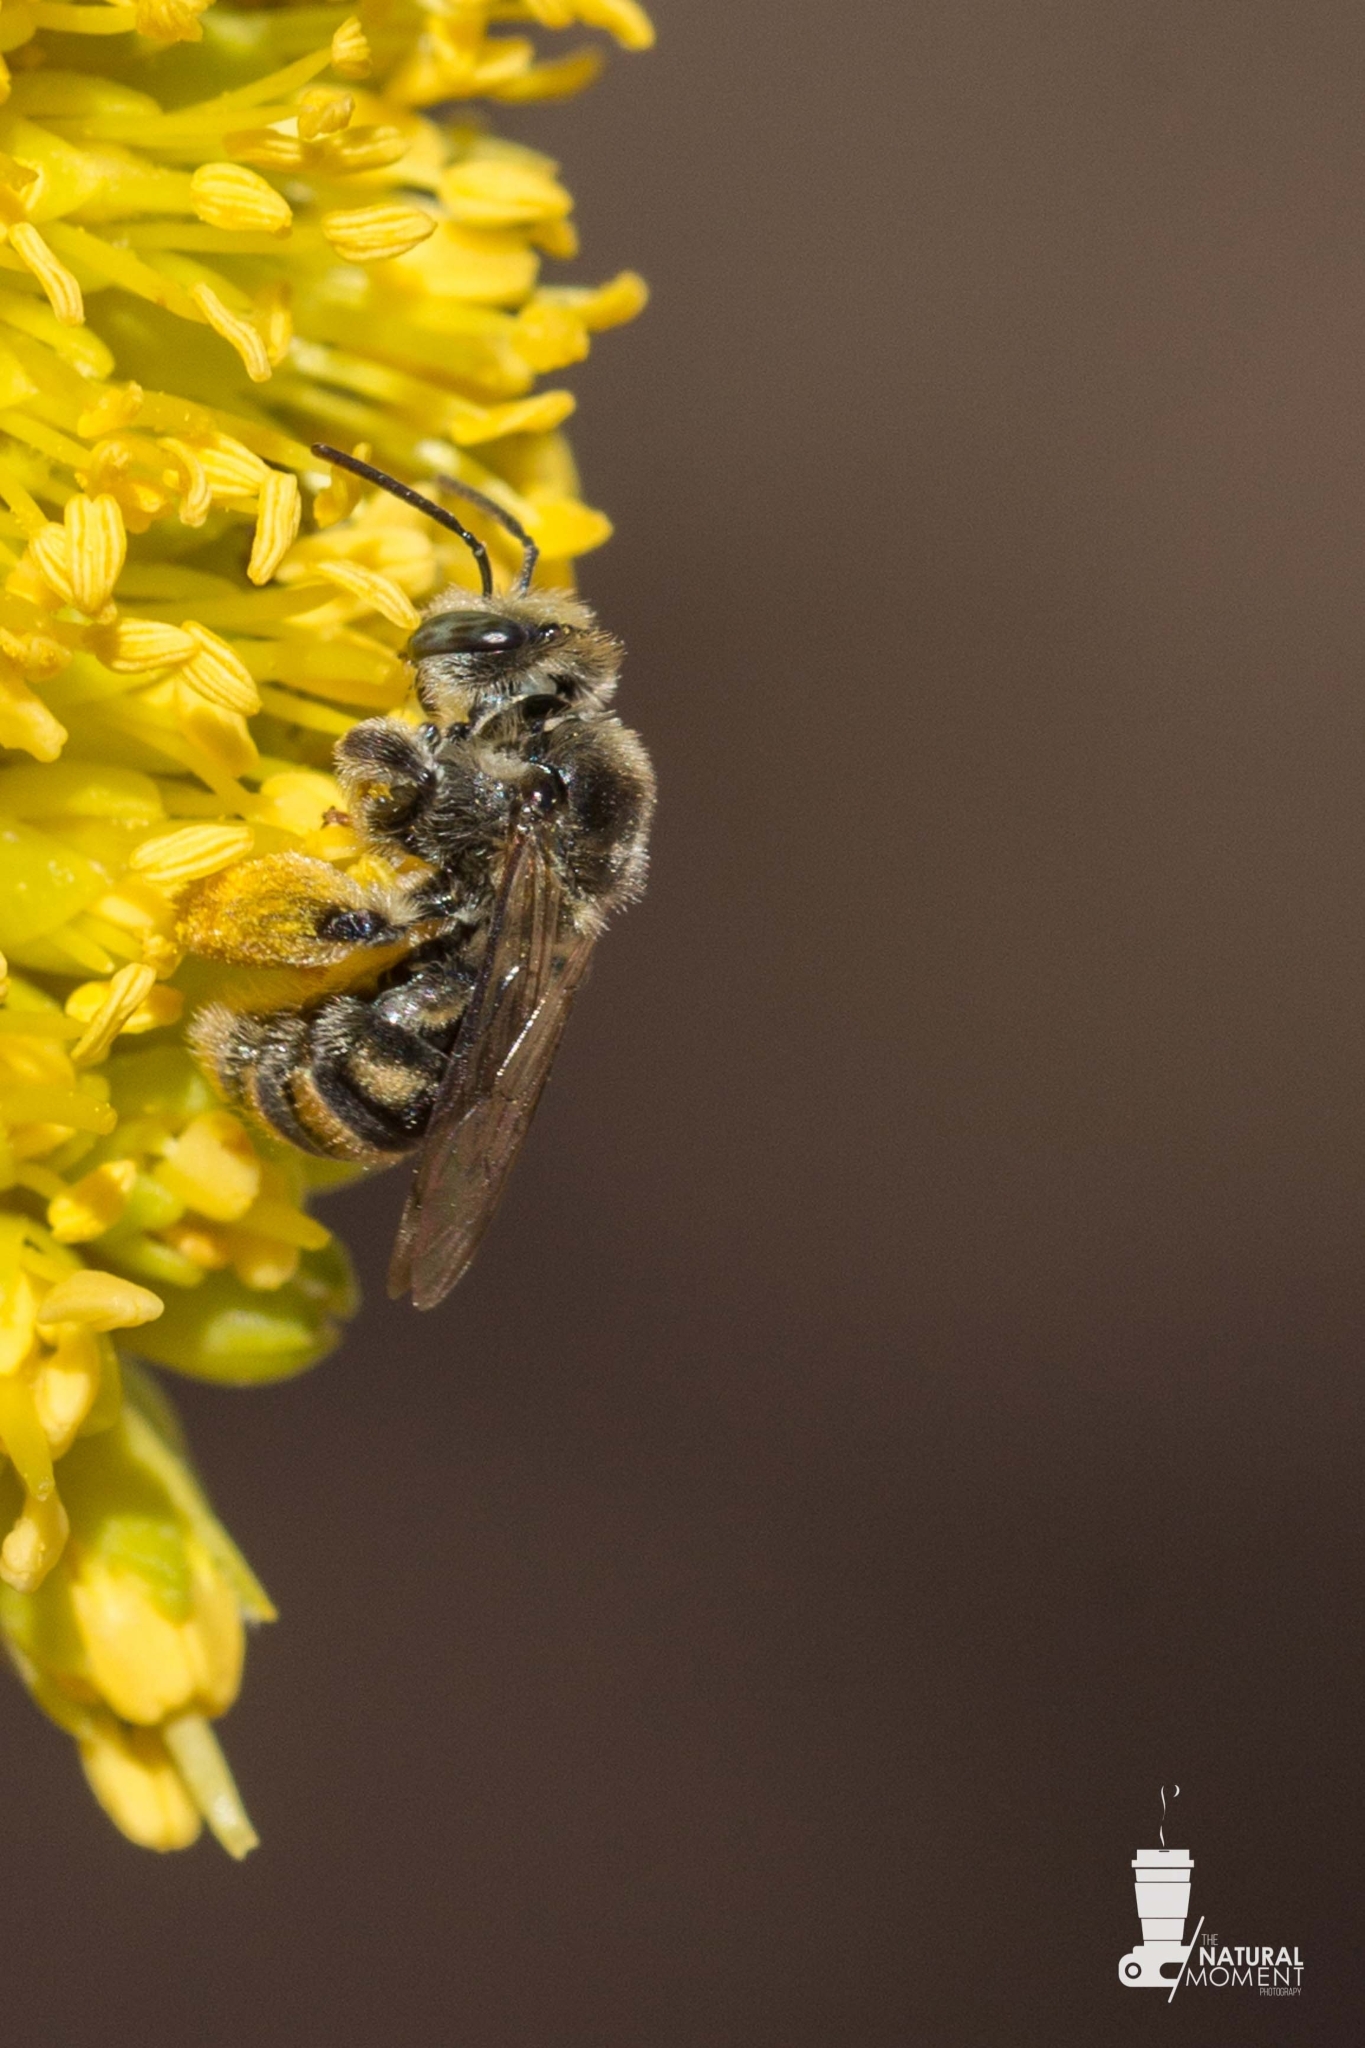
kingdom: Animalia
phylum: Arthropoda
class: Insecta
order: Hymenoptera
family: Apidae
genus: Exomalopsis
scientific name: Exomalopsis bruesi
